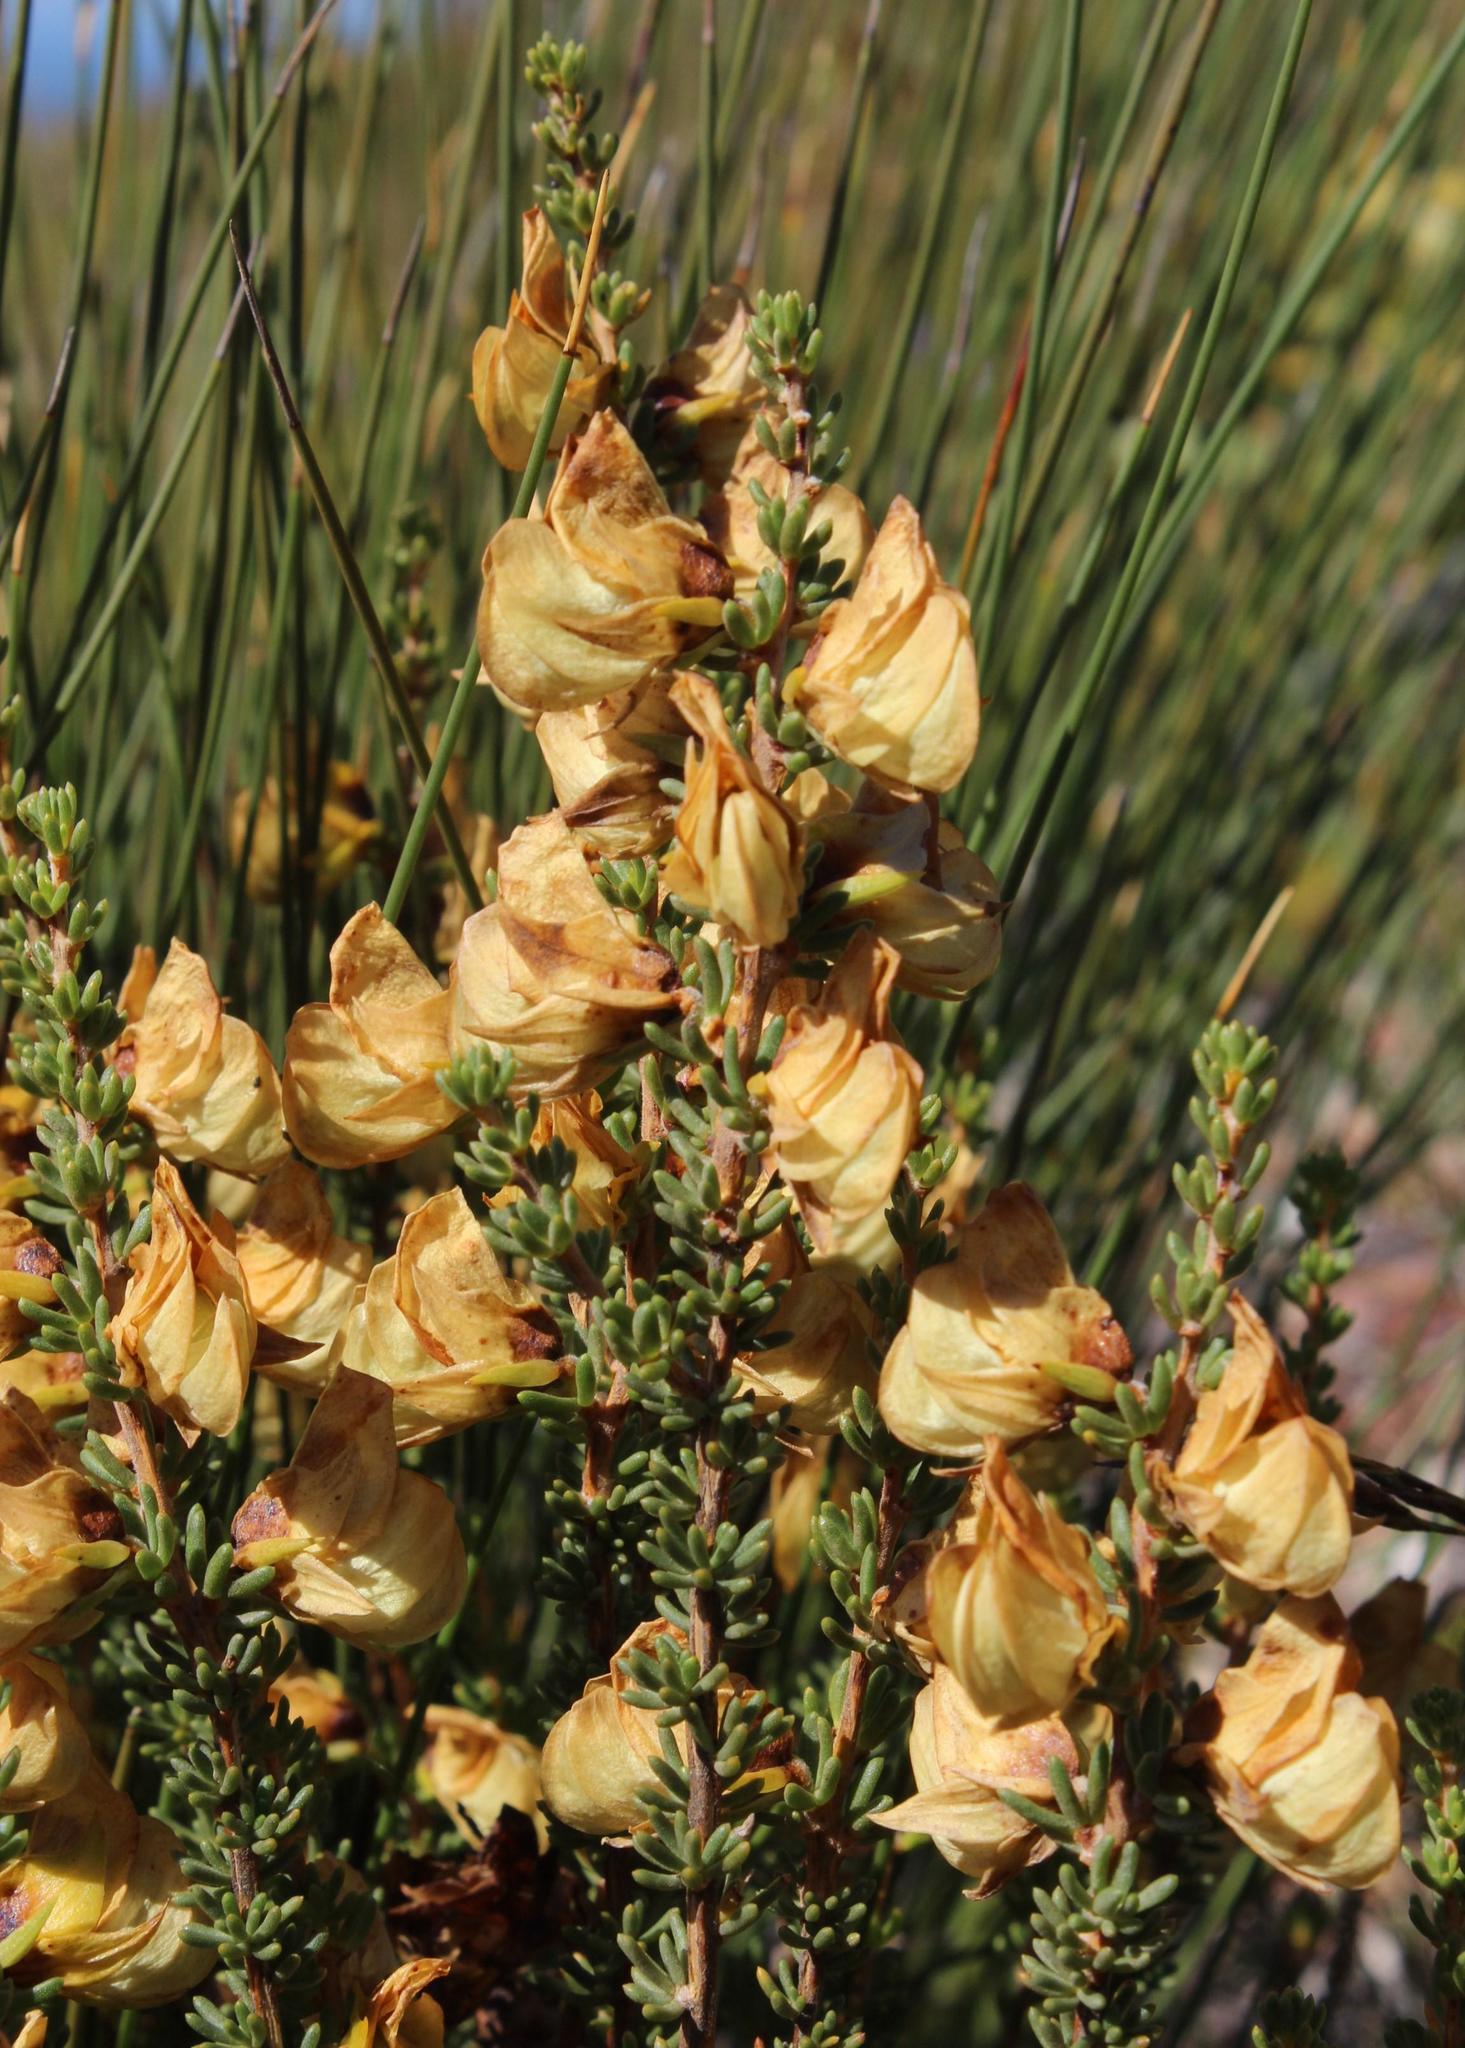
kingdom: Plantae
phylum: Tracheophyta
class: Magnoliopsida
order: Fabales
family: Fabaceae
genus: Aspalathus
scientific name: Aspalathus citrina
